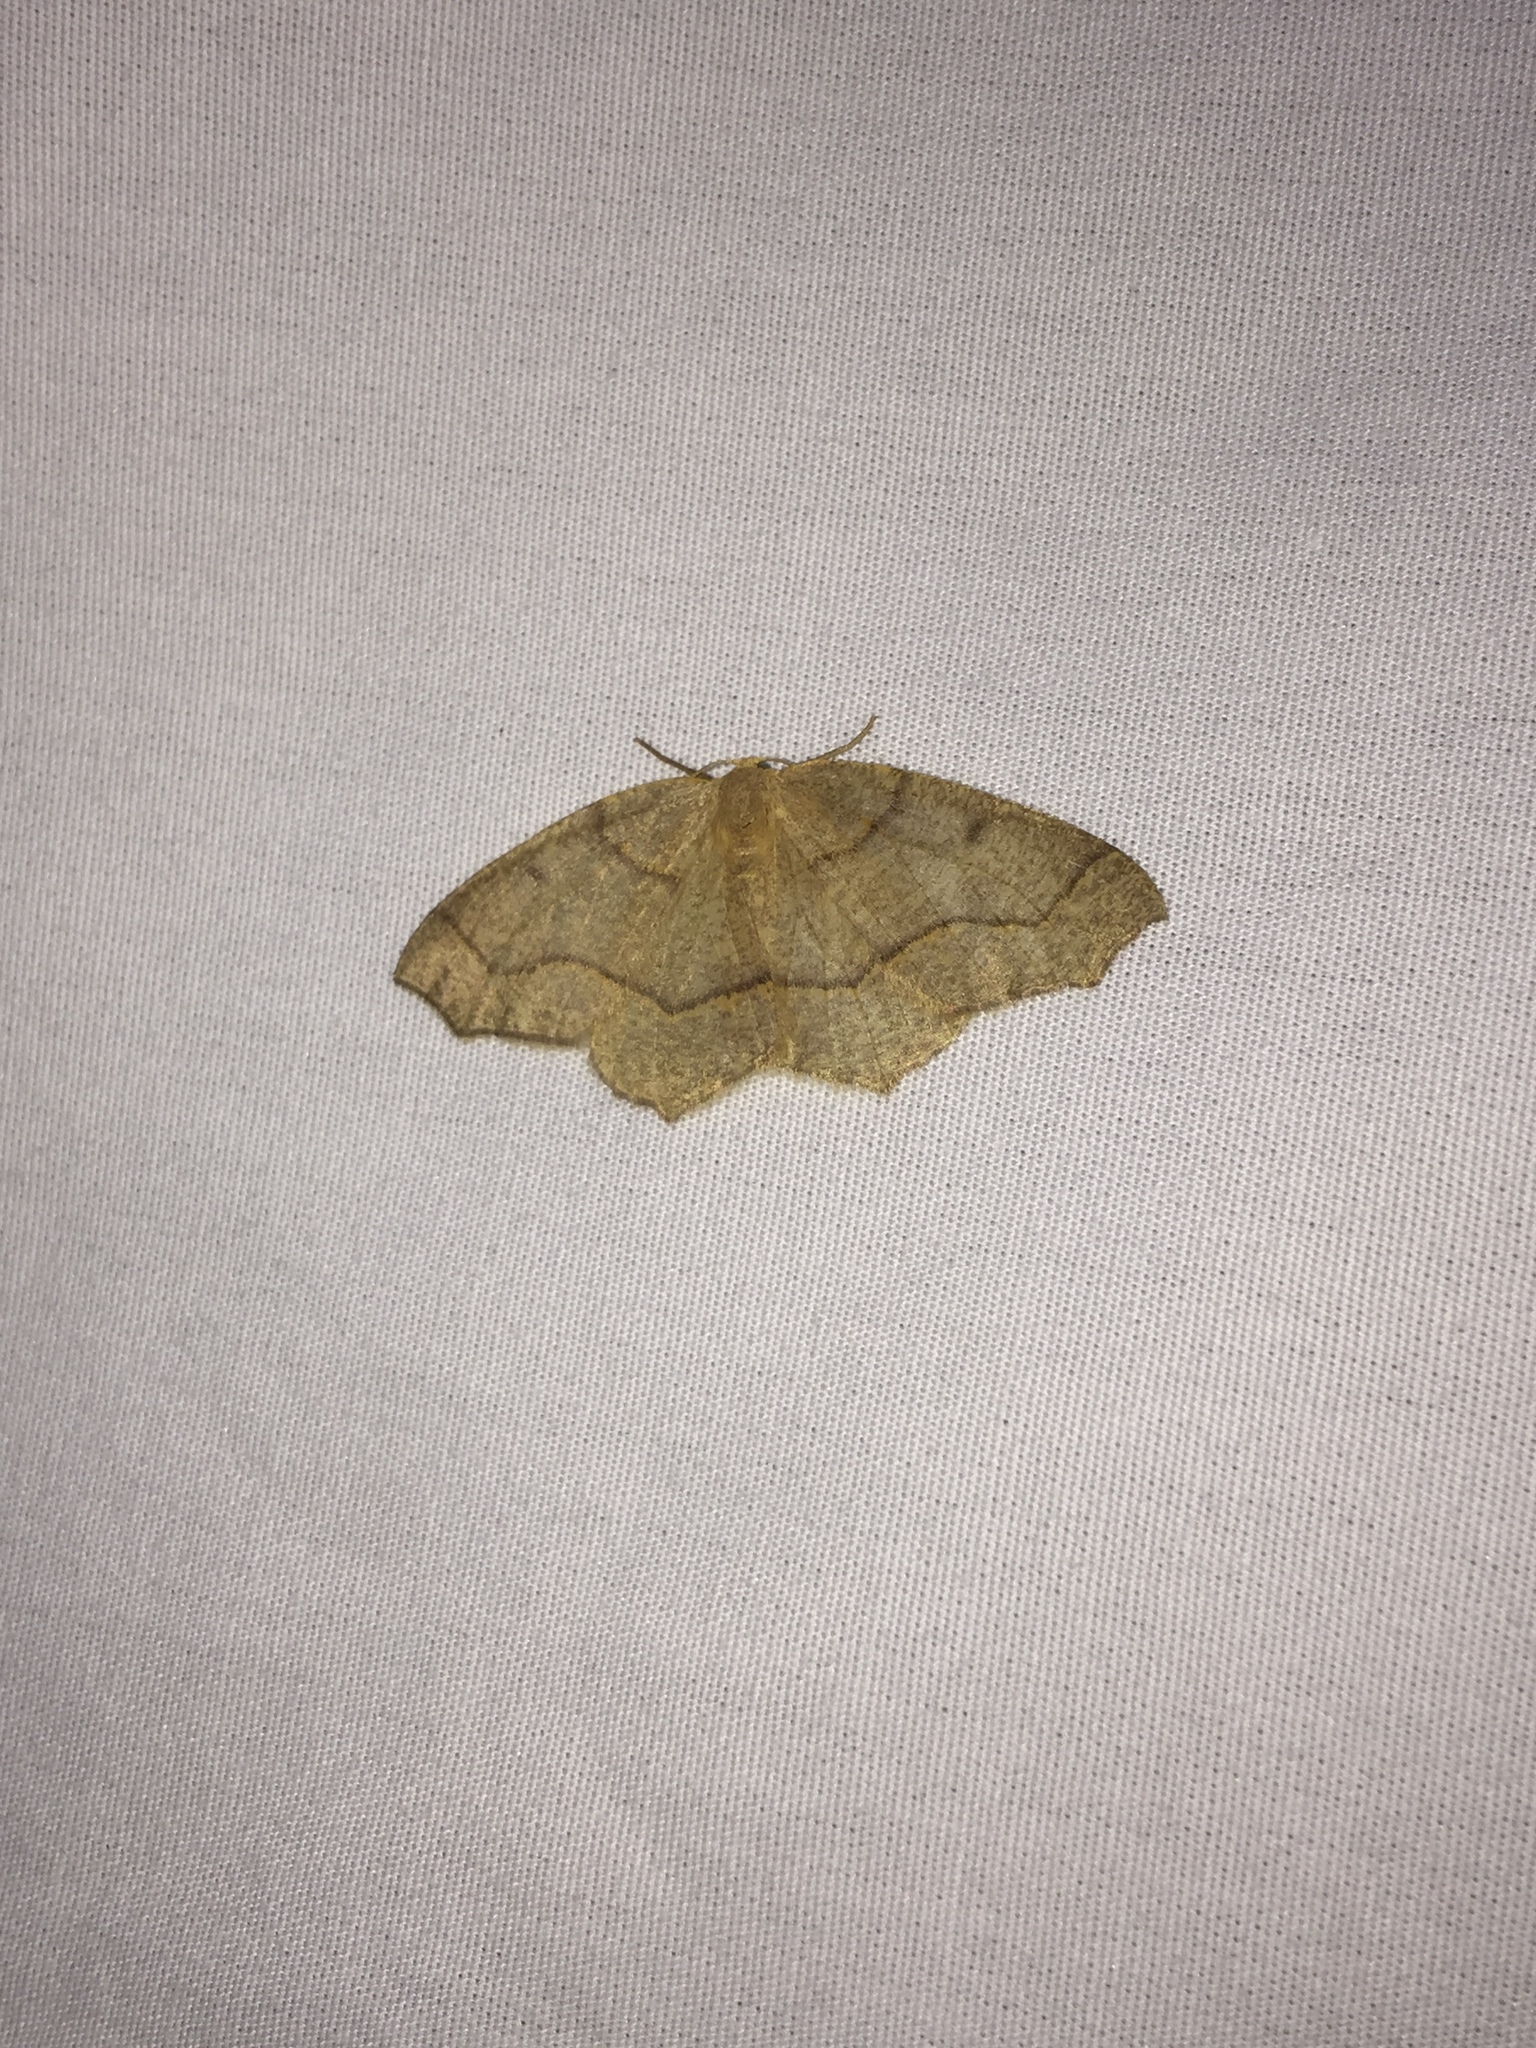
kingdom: Animalia
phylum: Arthropoda
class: Insecta
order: Lepidoptera
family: Geometridae
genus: Lambdina
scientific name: Lambdina fiscellaria
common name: Hemlock looper
